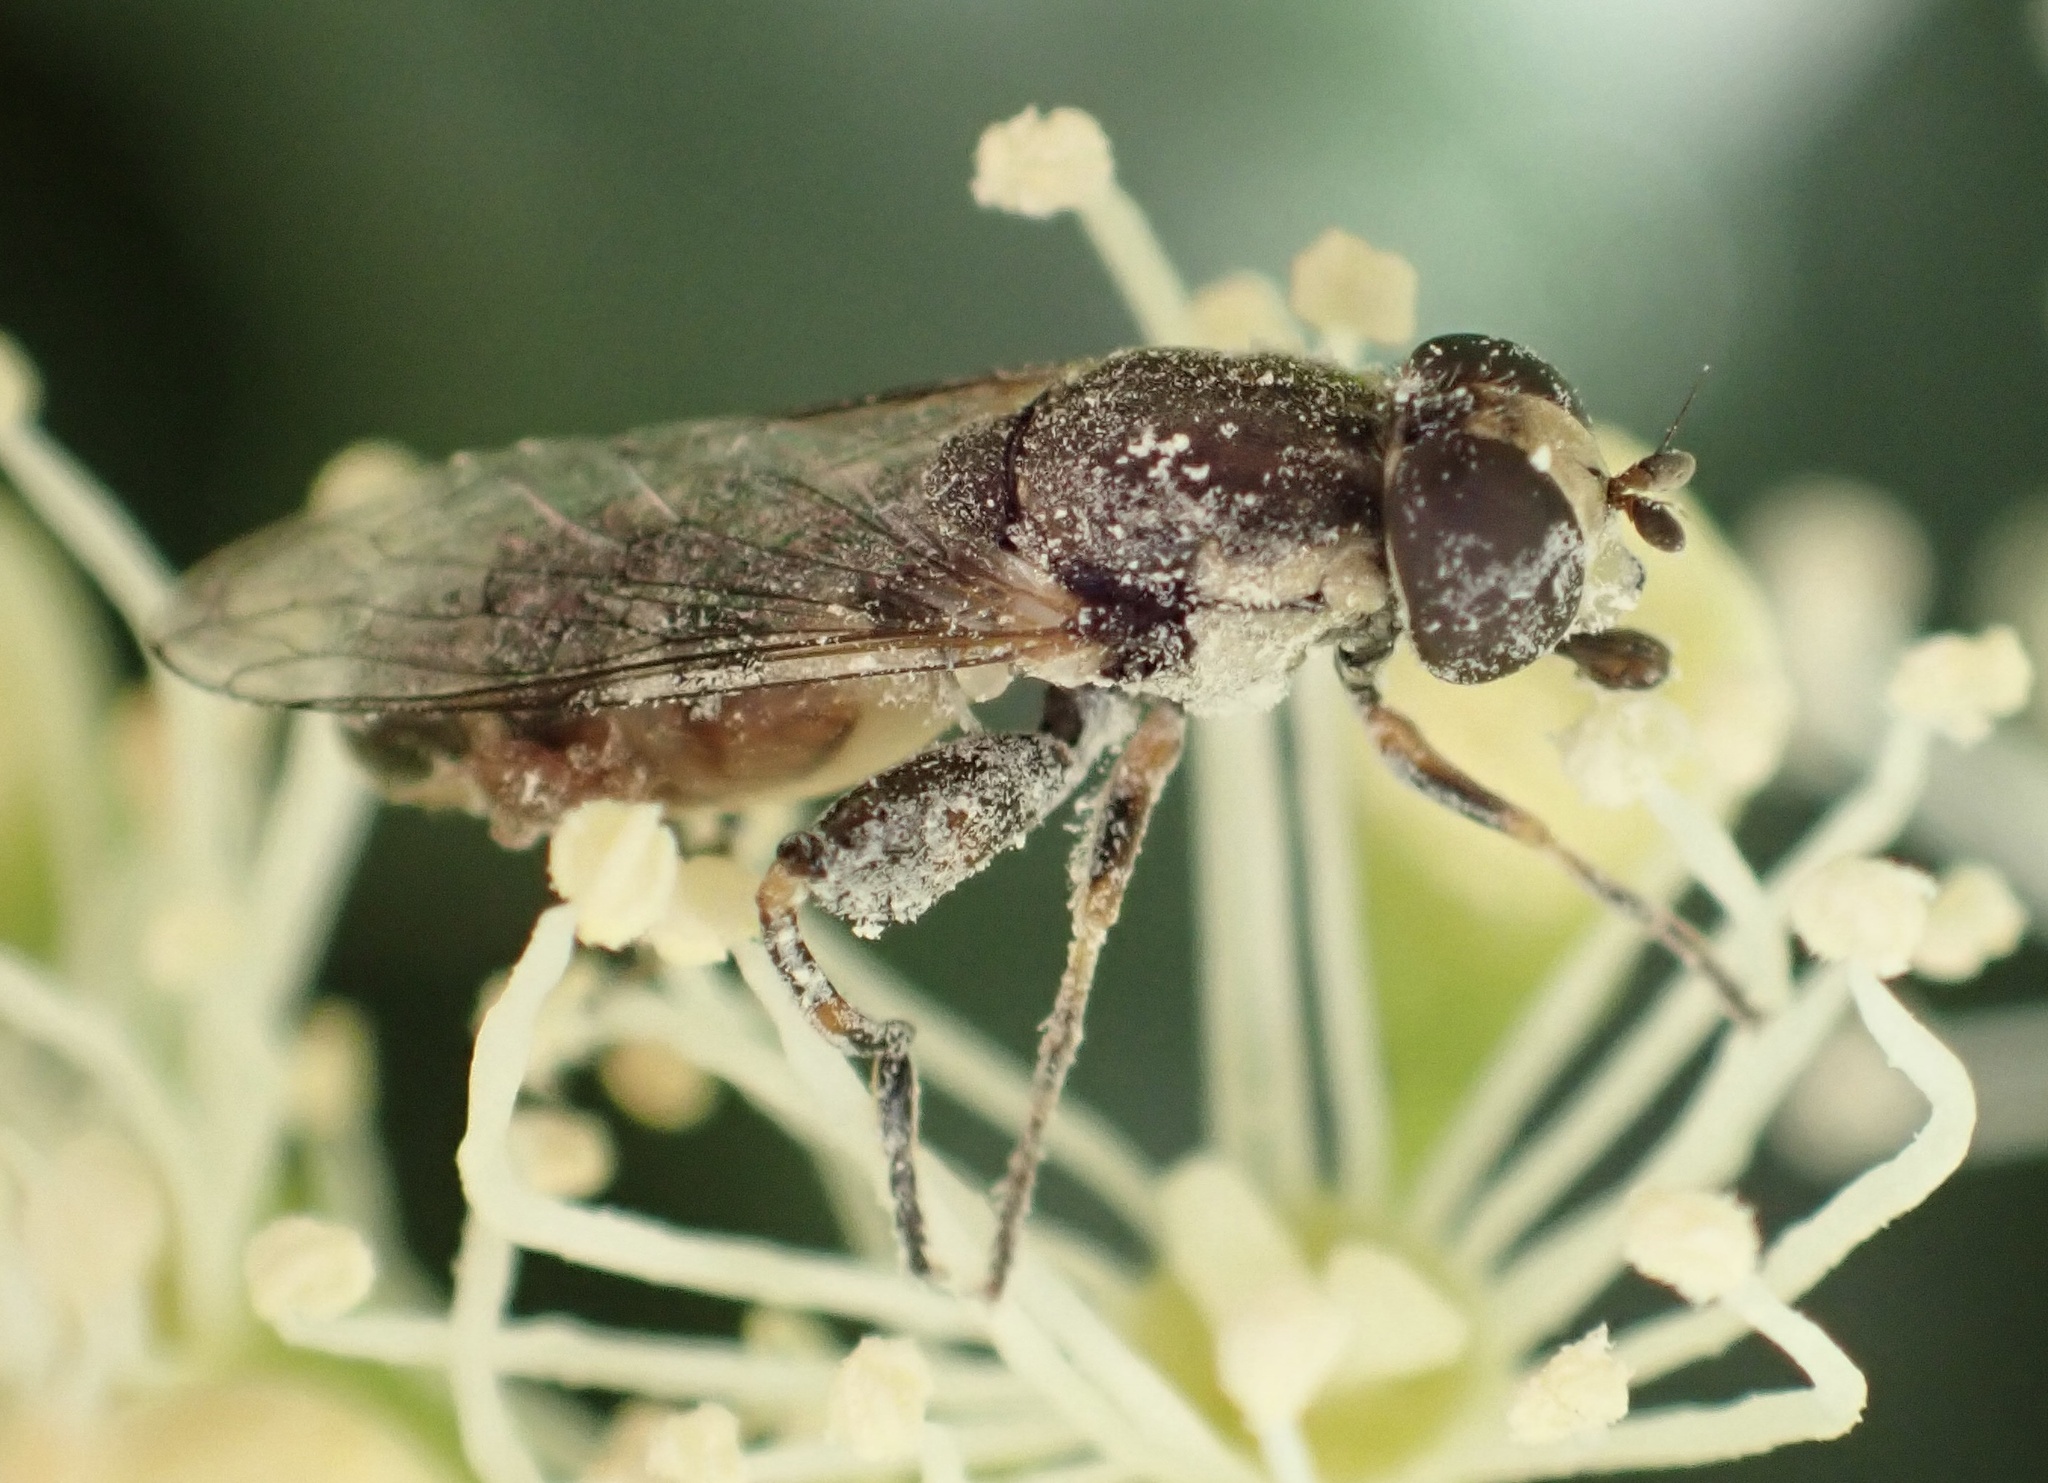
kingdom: Animalia
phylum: Arthropoda
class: Insecta
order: Diptera
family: Syrphidae
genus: Syritta
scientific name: Syritta pipiens
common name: Hover fly
